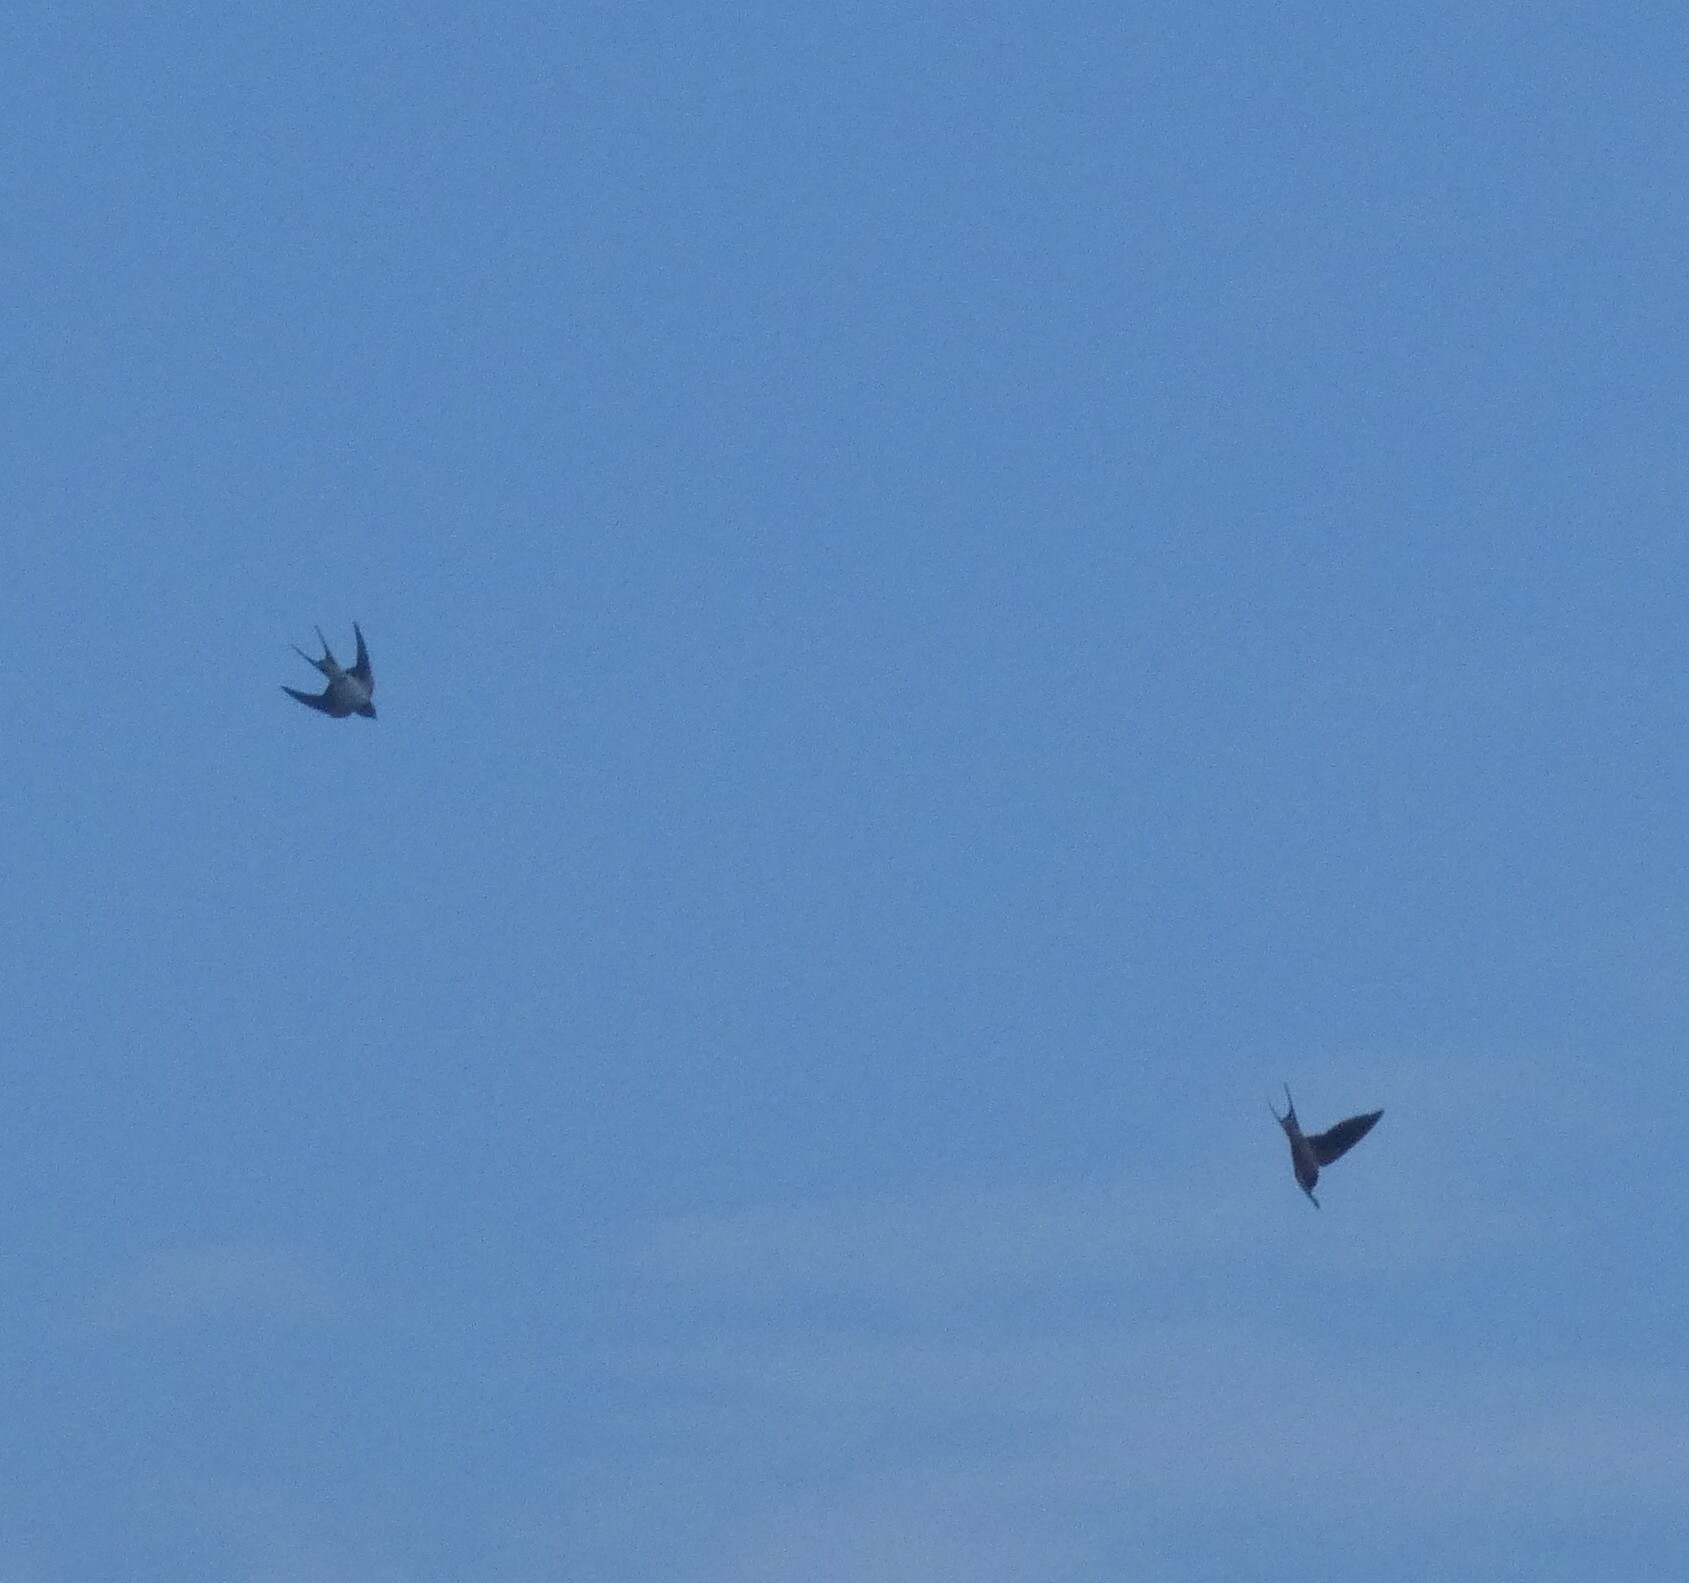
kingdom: Animalia
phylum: Chordata
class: Aves
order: Passeriformes
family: Hirundinidae
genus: Hirundo
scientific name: Hirundo rustica
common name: Barn swallow
